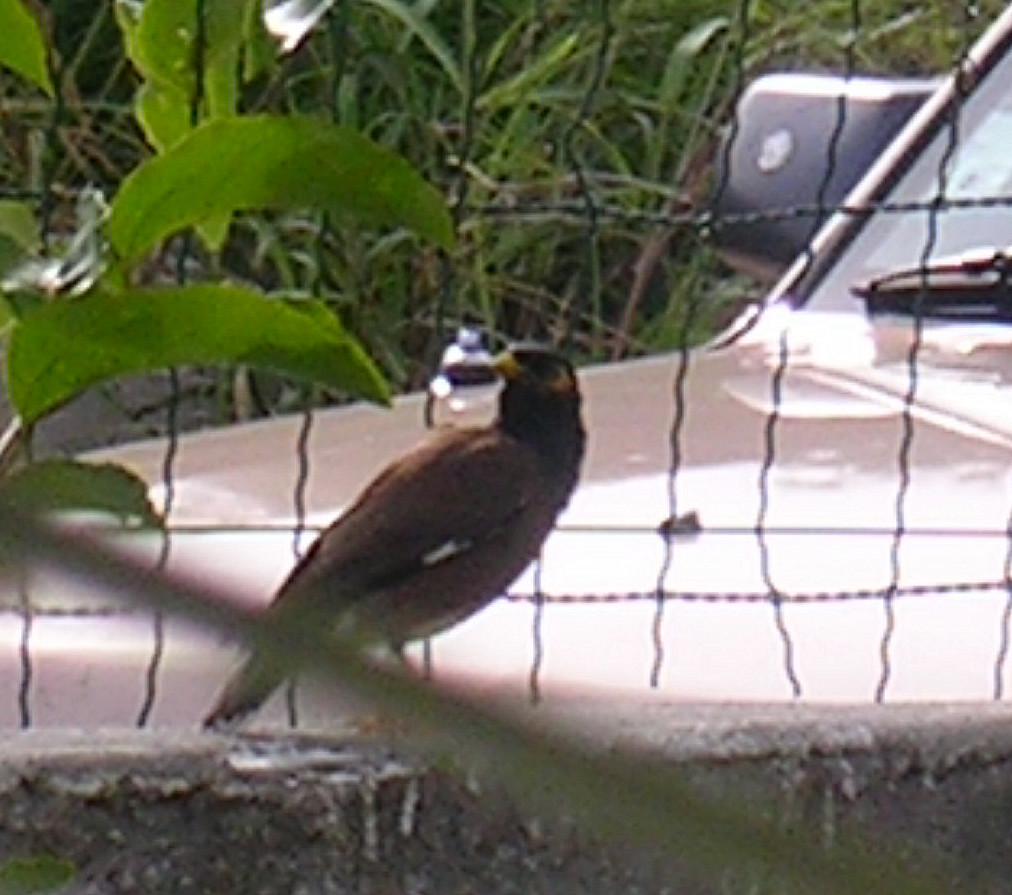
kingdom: Animalia
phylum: Chordata
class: Aves
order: Passeriformes
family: Sturnidae
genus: Acridotheres
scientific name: Acridotheres tristis
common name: Common myna
